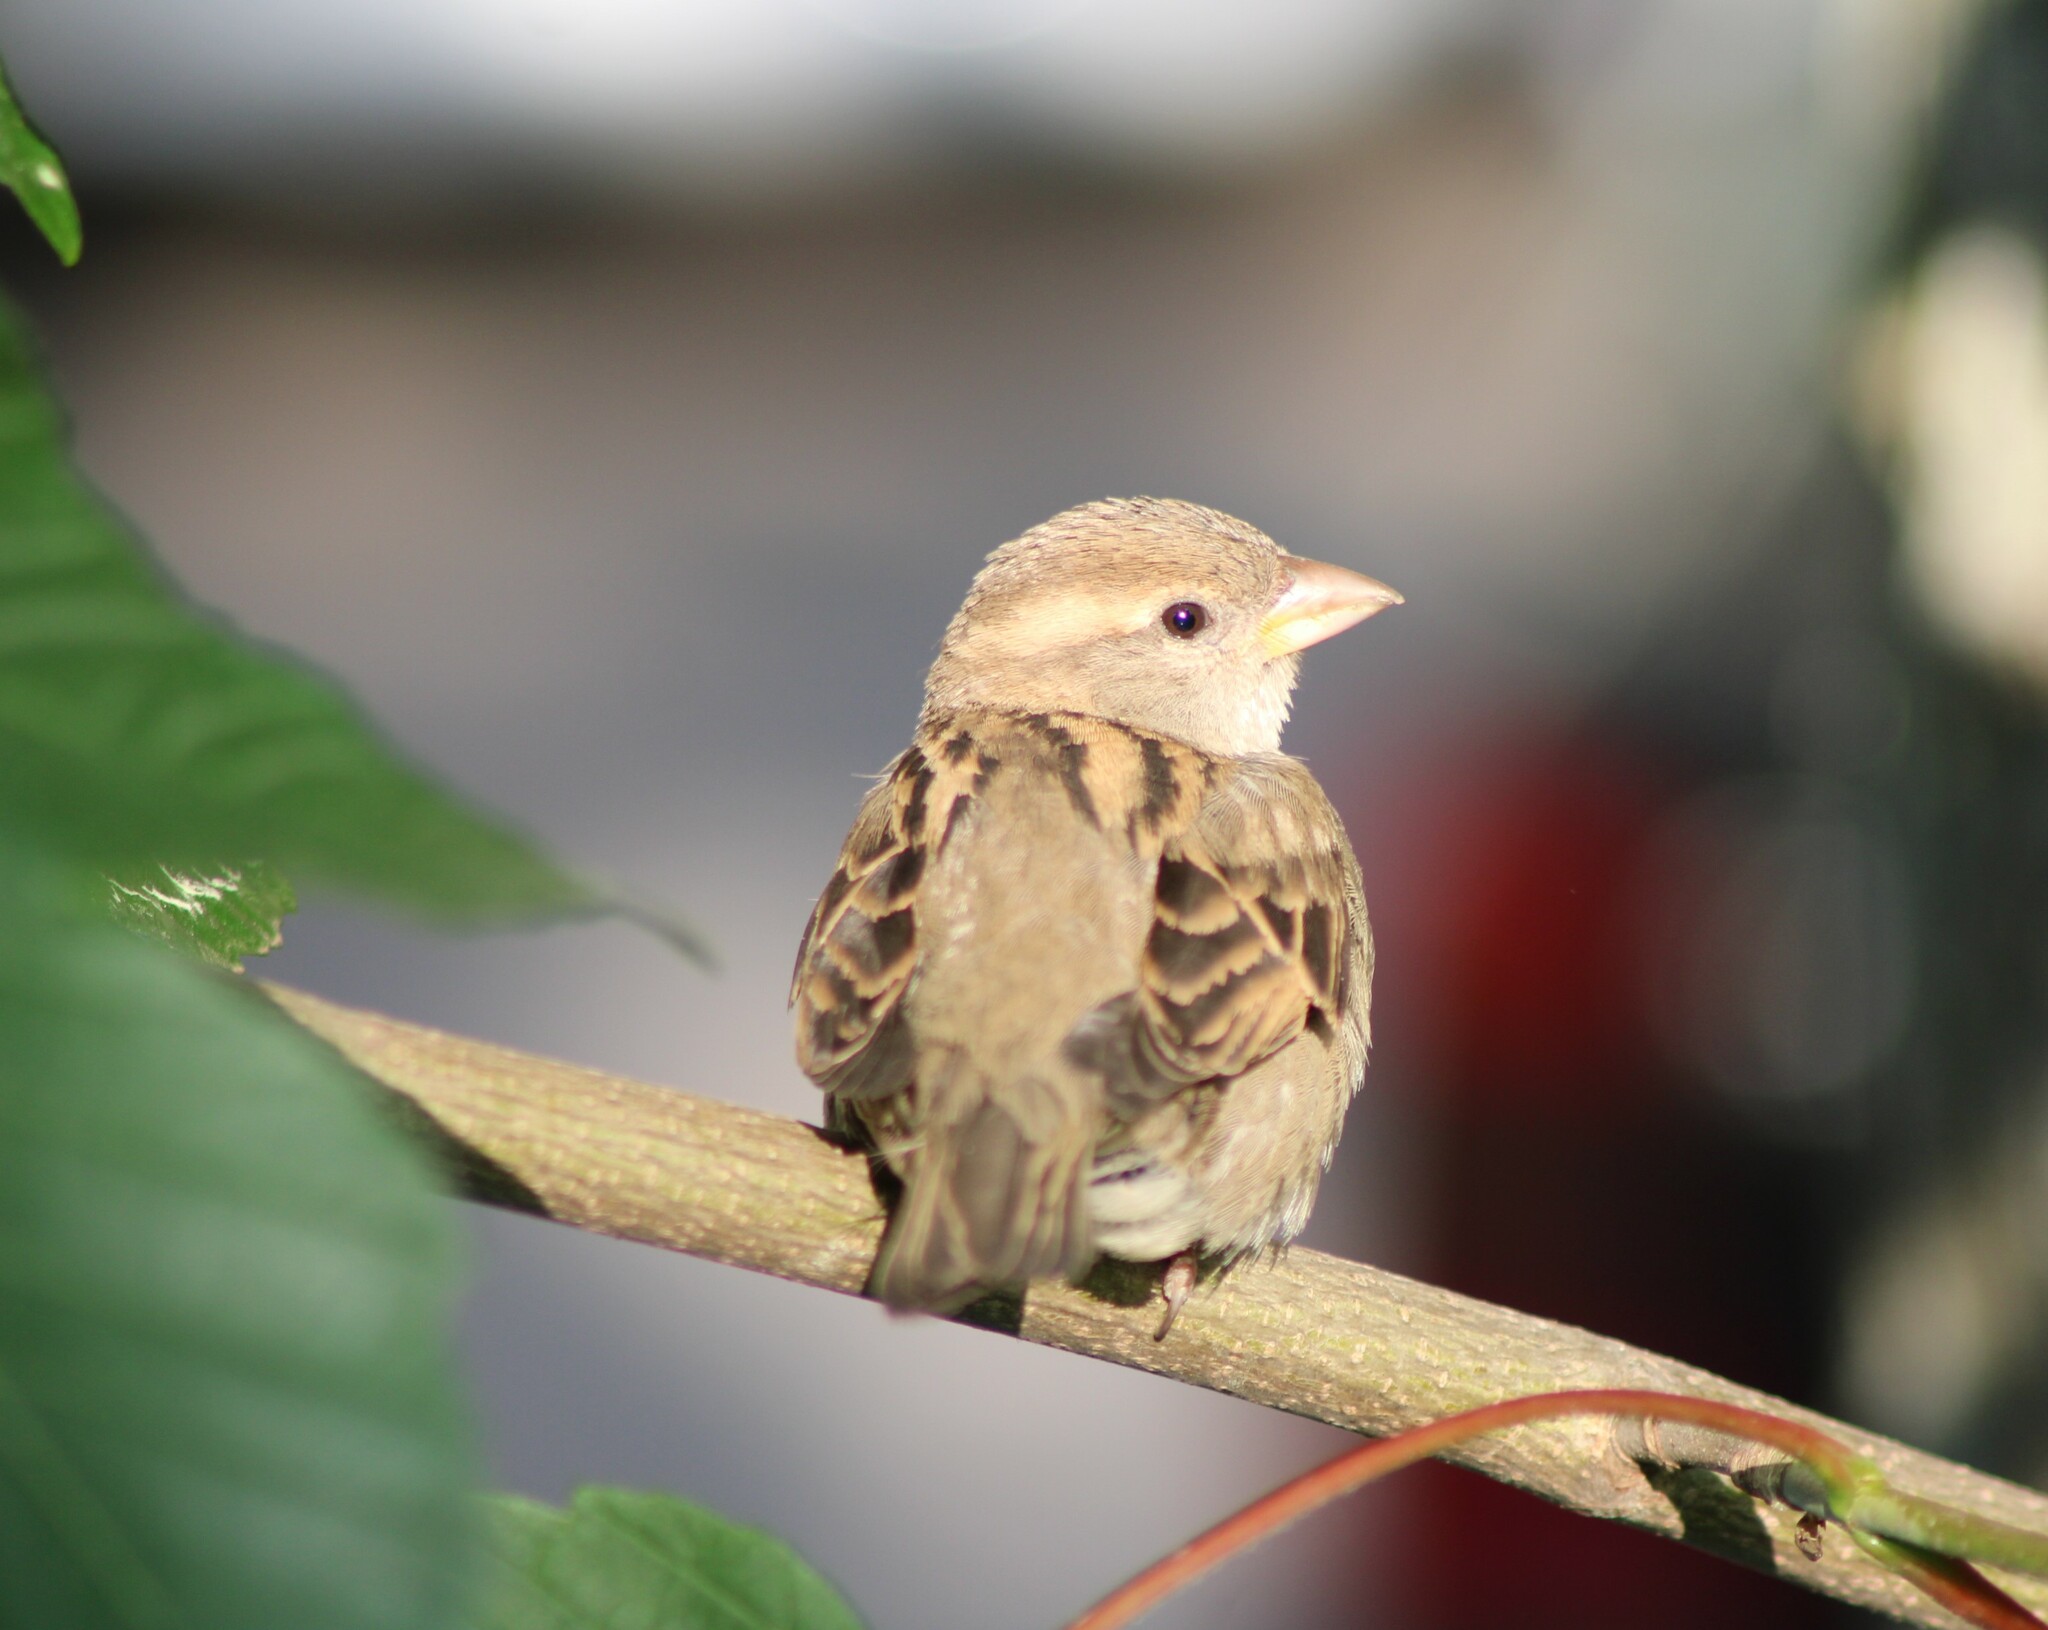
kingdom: Animalia
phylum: Chordata
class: Aves
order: Passeriformes
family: Passeridae
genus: Passer
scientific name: Passer domesticus
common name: House sparrow
